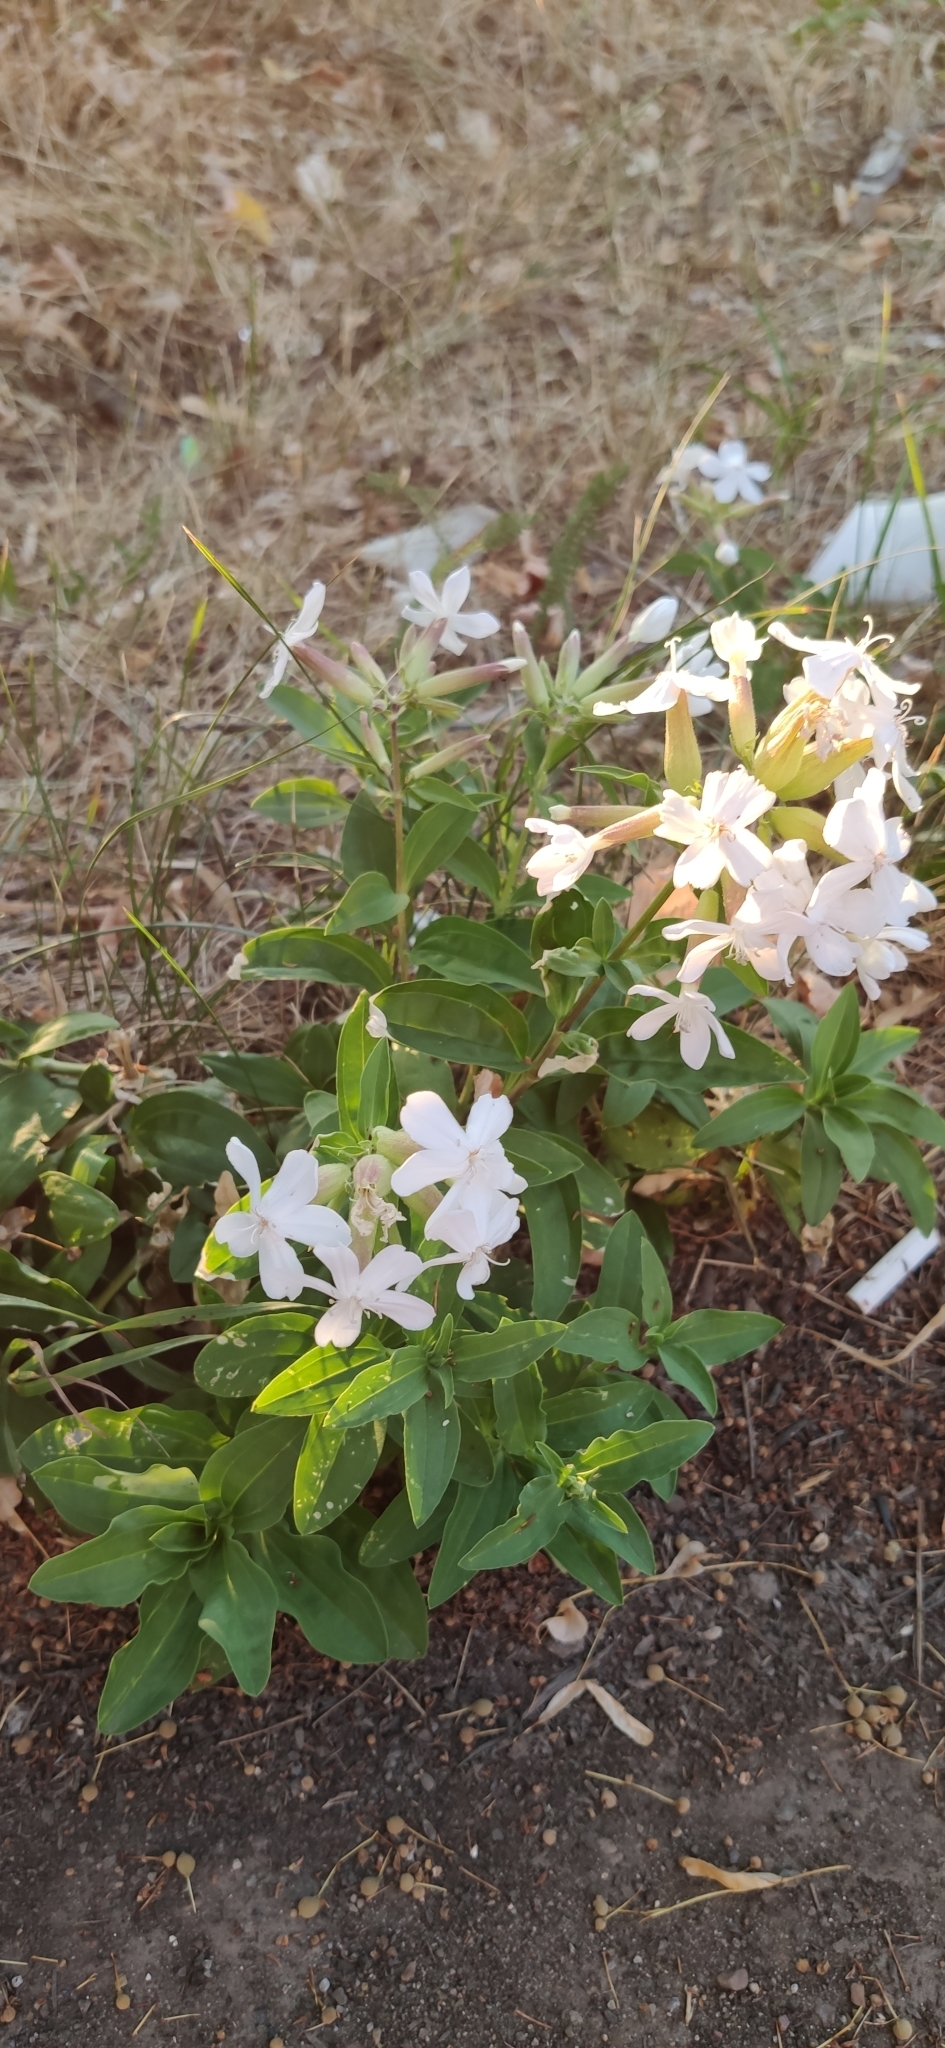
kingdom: Plantae
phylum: Tracheophyta
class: Magnoliopsida
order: Caryophyllales
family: Caryophyllaceae
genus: Saponaria
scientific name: Saponaria officinalis
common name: Soapwort
